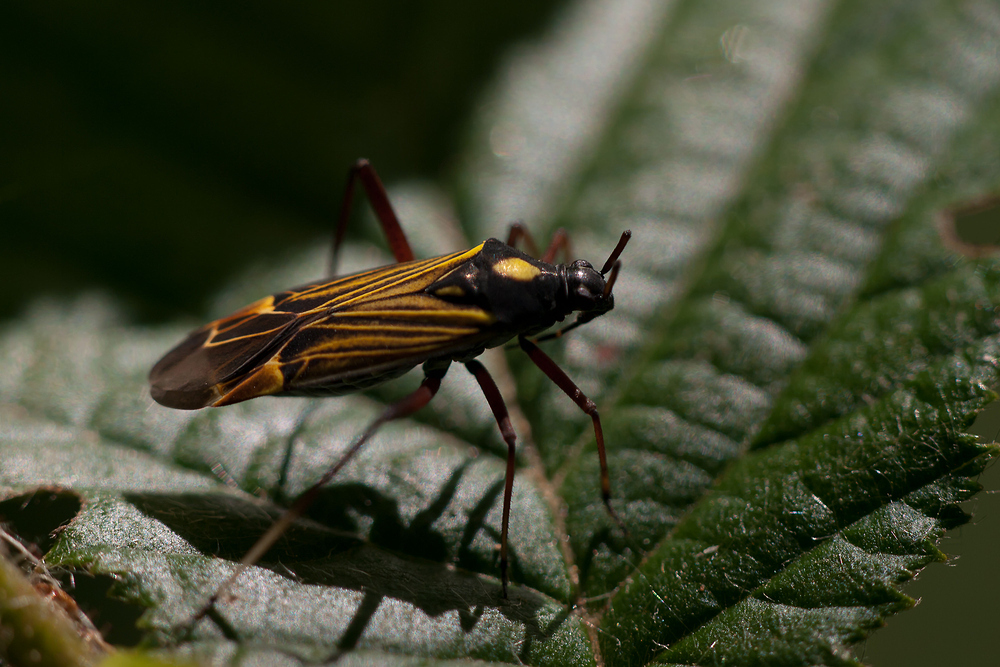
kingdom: Animalia
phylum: Arthropoda
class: Insecta
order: Hemiptera
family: Miridae
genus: Miris
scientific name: Miris striatus
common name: Fine streaked bugkin
